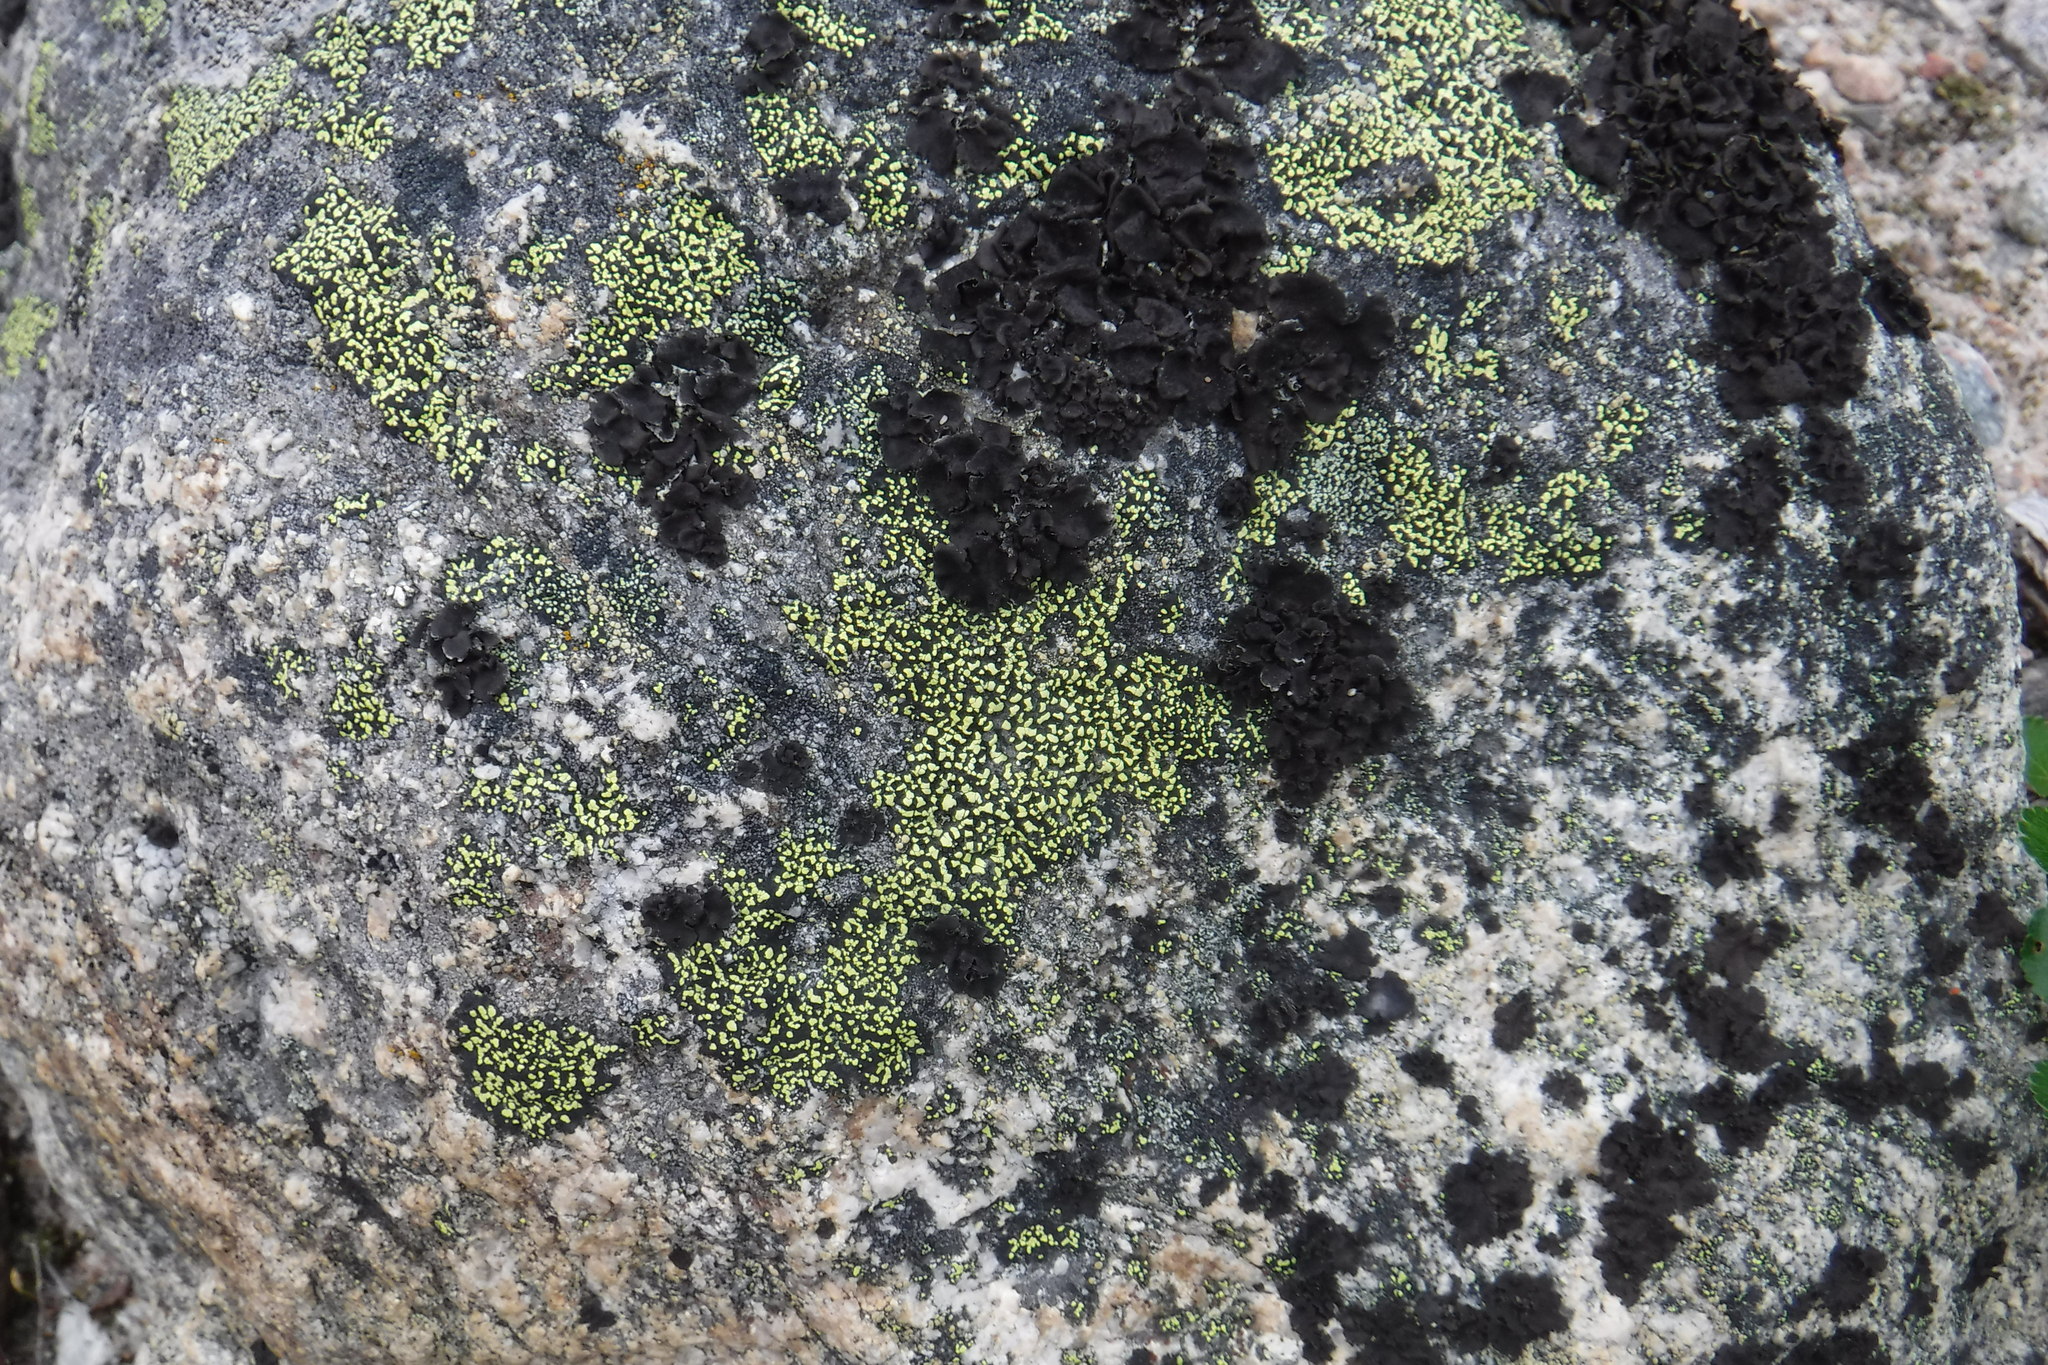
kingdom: Fungi
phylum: Ascomycota
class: Lecanoromycetes
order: Rhizocarpales
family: Rhizocarpaceae
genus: Rhizocarpon
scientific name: Rhizocarpon geographicum
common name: Yellow map lichen
